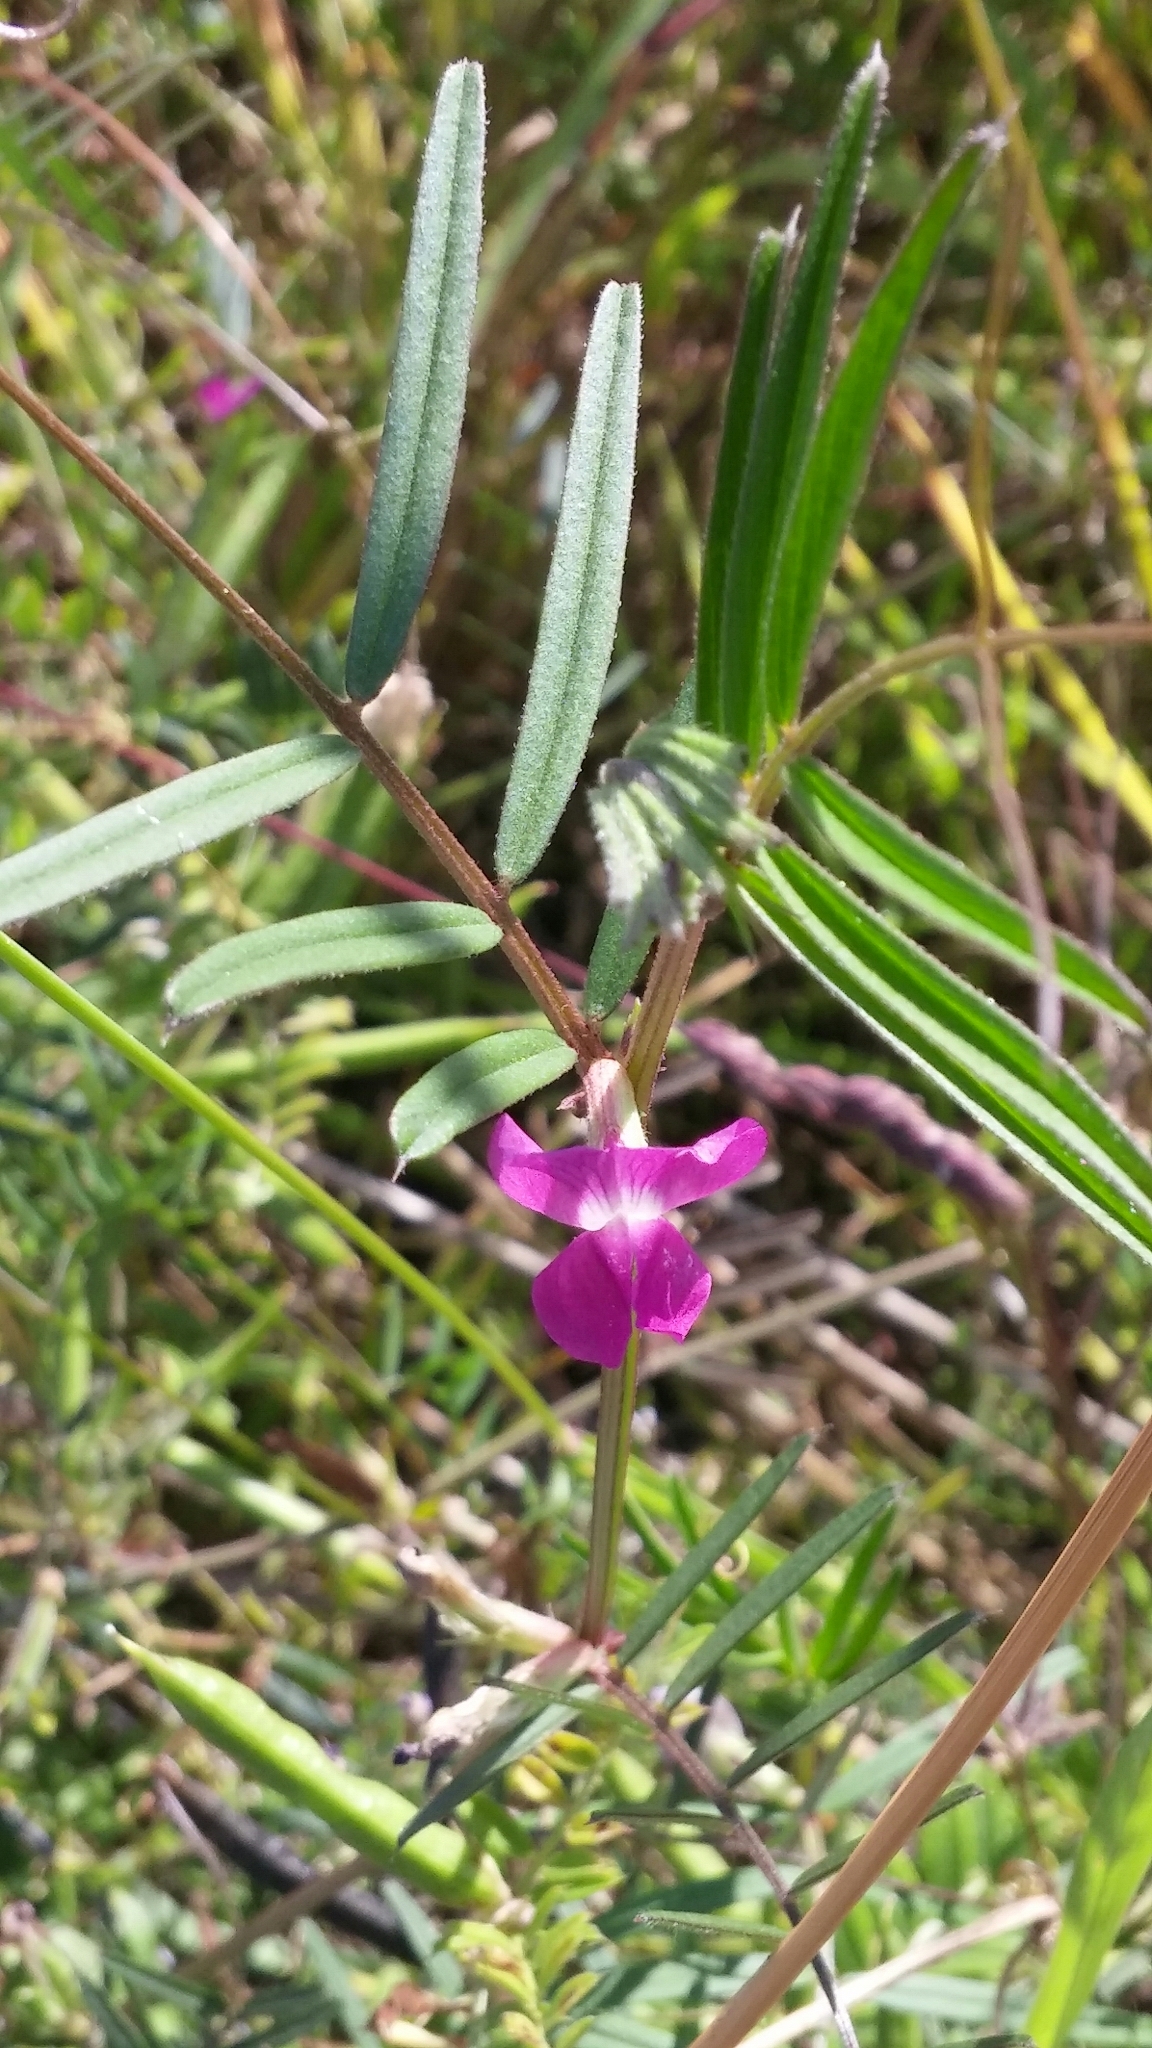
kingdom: Plantae
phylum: Tracheophyta
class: Magnoliopsida
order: Fabales
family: Fabaceae
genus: Vicia
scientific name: Vicia sativa
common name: Garden vetch
